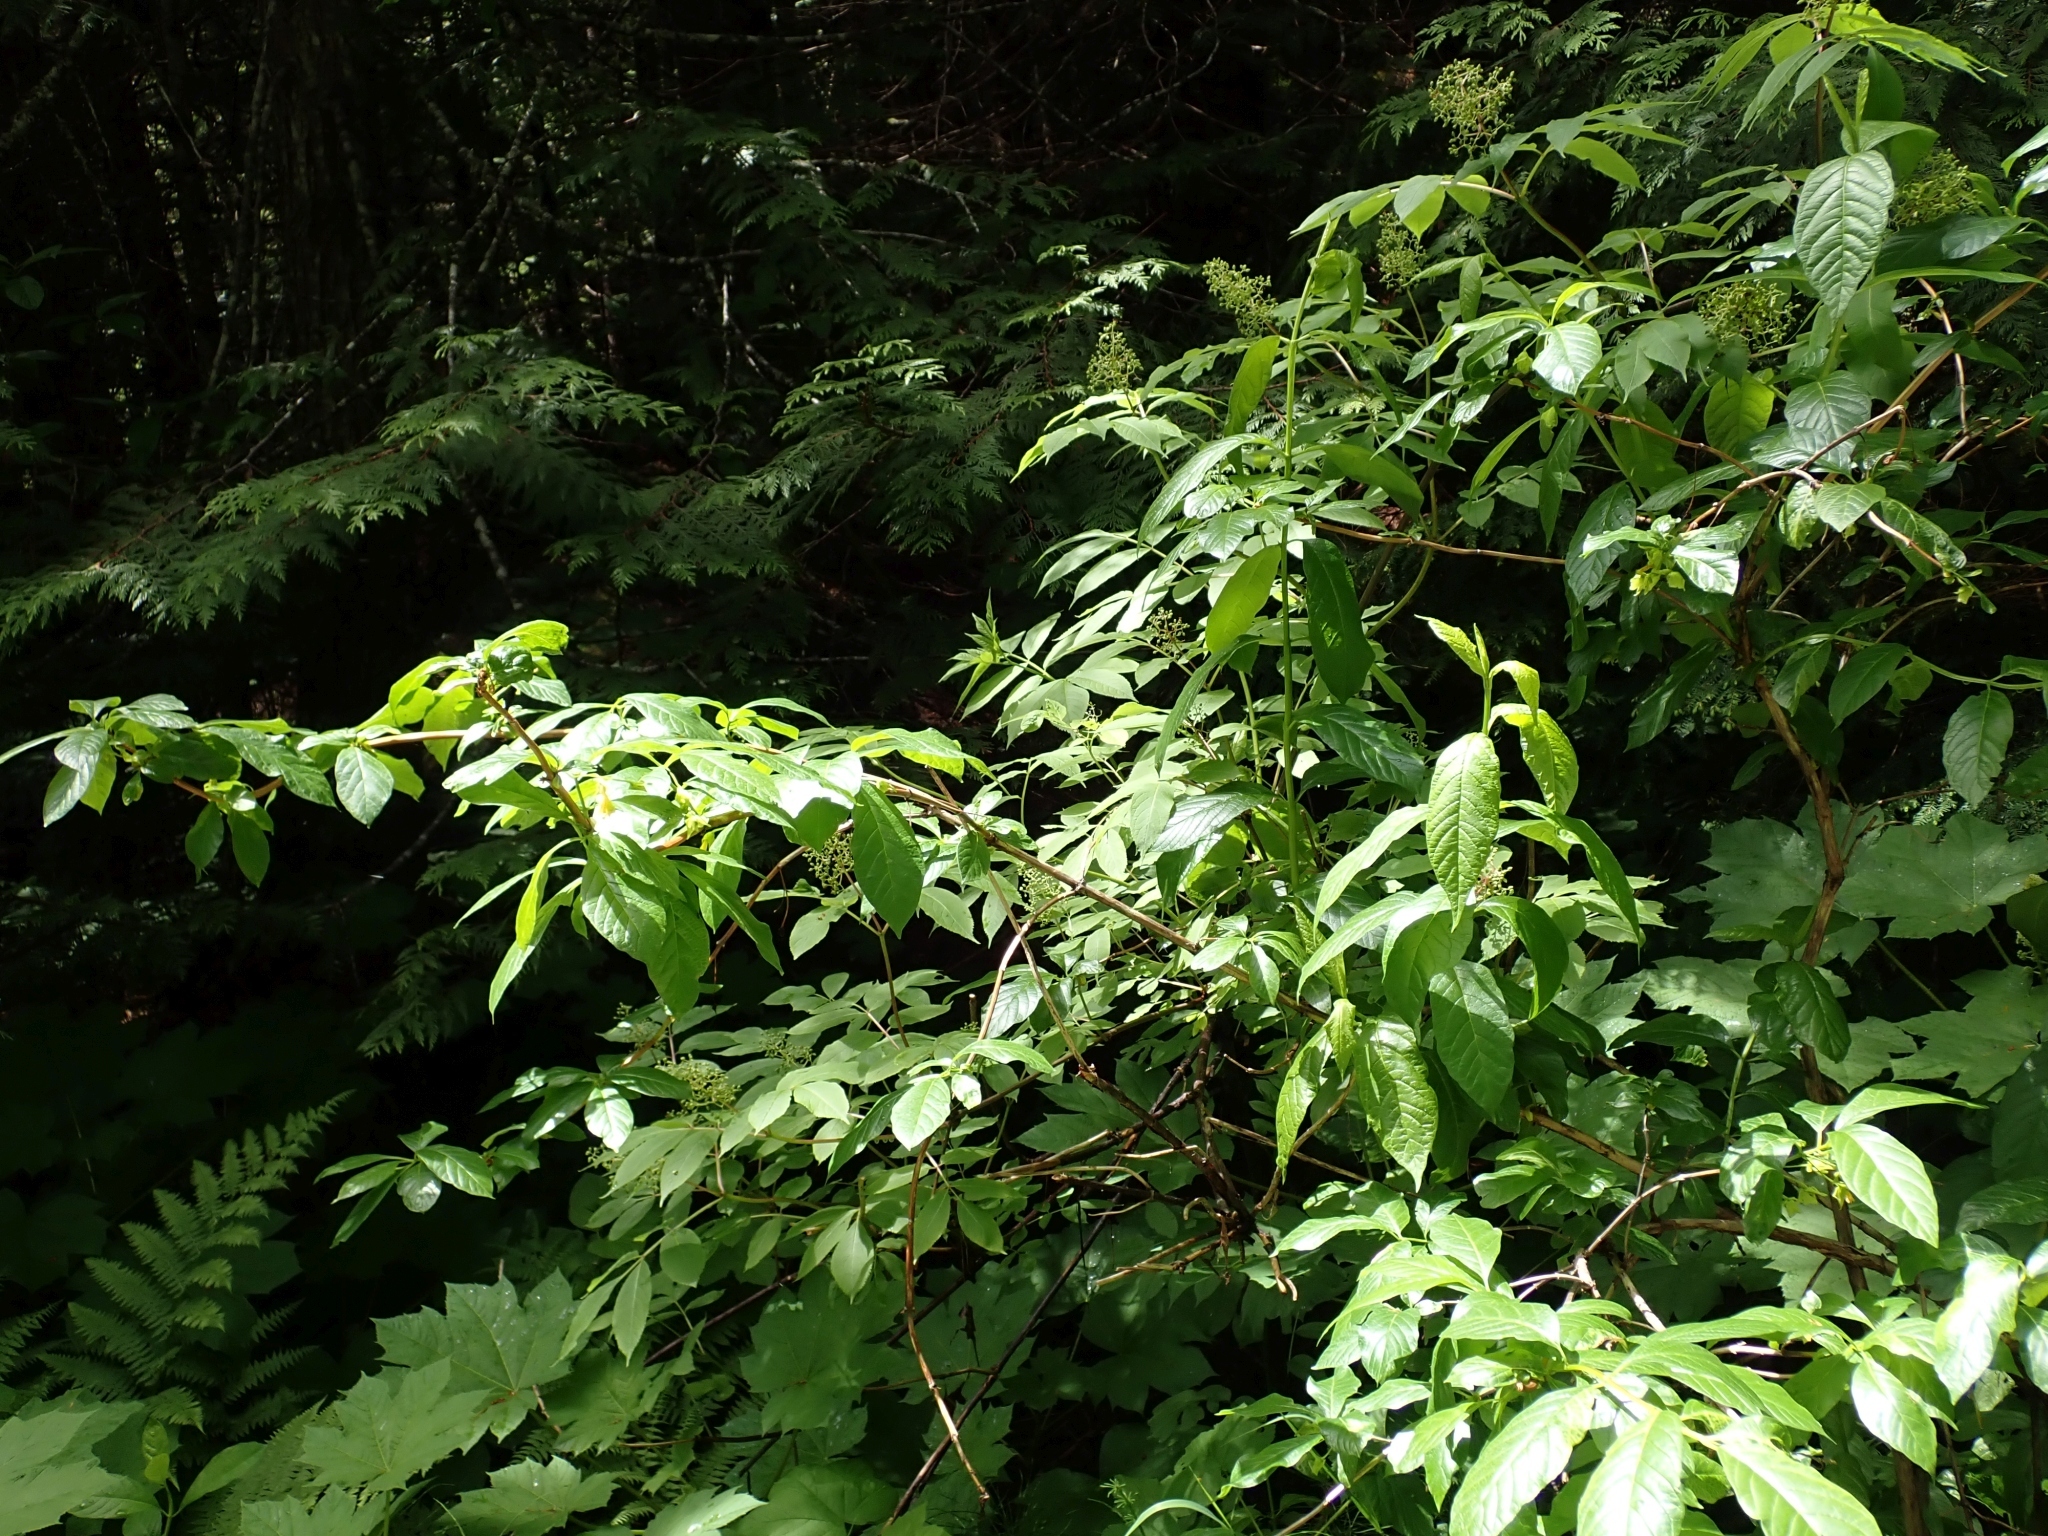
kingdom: Plantae
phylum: Tracheophyta
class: Magnoliopsida
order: Dipsacales
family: Caprifoliaceae
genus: Lonicera
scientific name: Lonicera involucrata
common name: Californian honeysuckle
